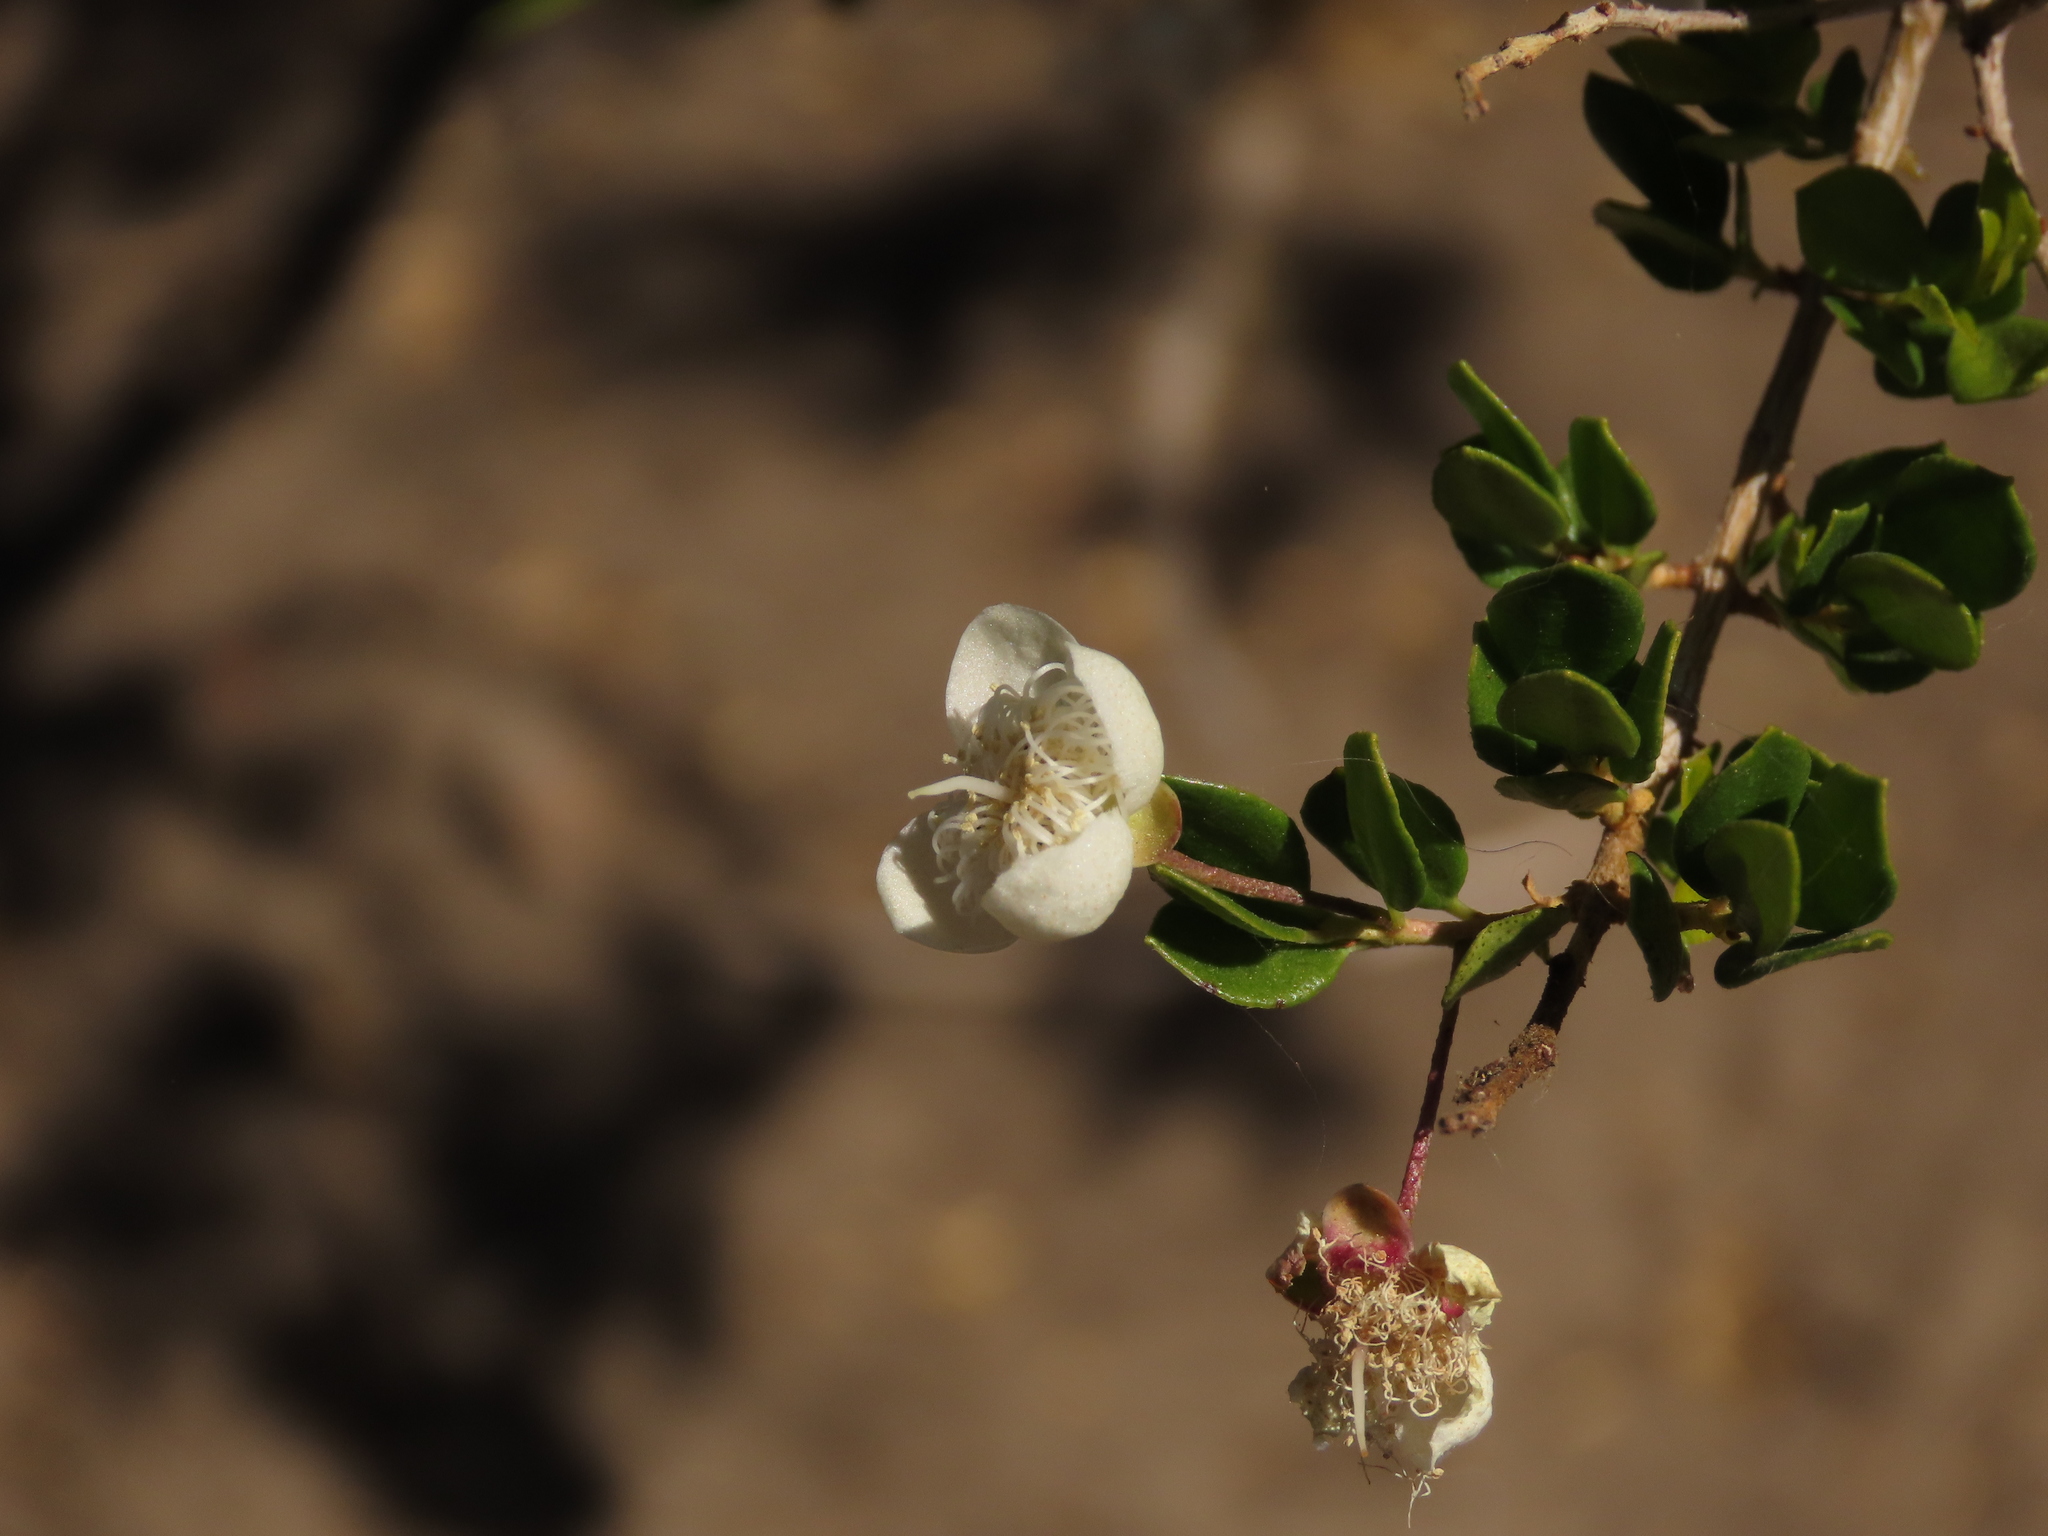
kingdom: Plantae
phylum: Tracheophyta
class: Magnoliopsida
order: Myrtales
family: Myrtaceae
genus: Luma
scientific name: Luma chequen
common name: Cheken
